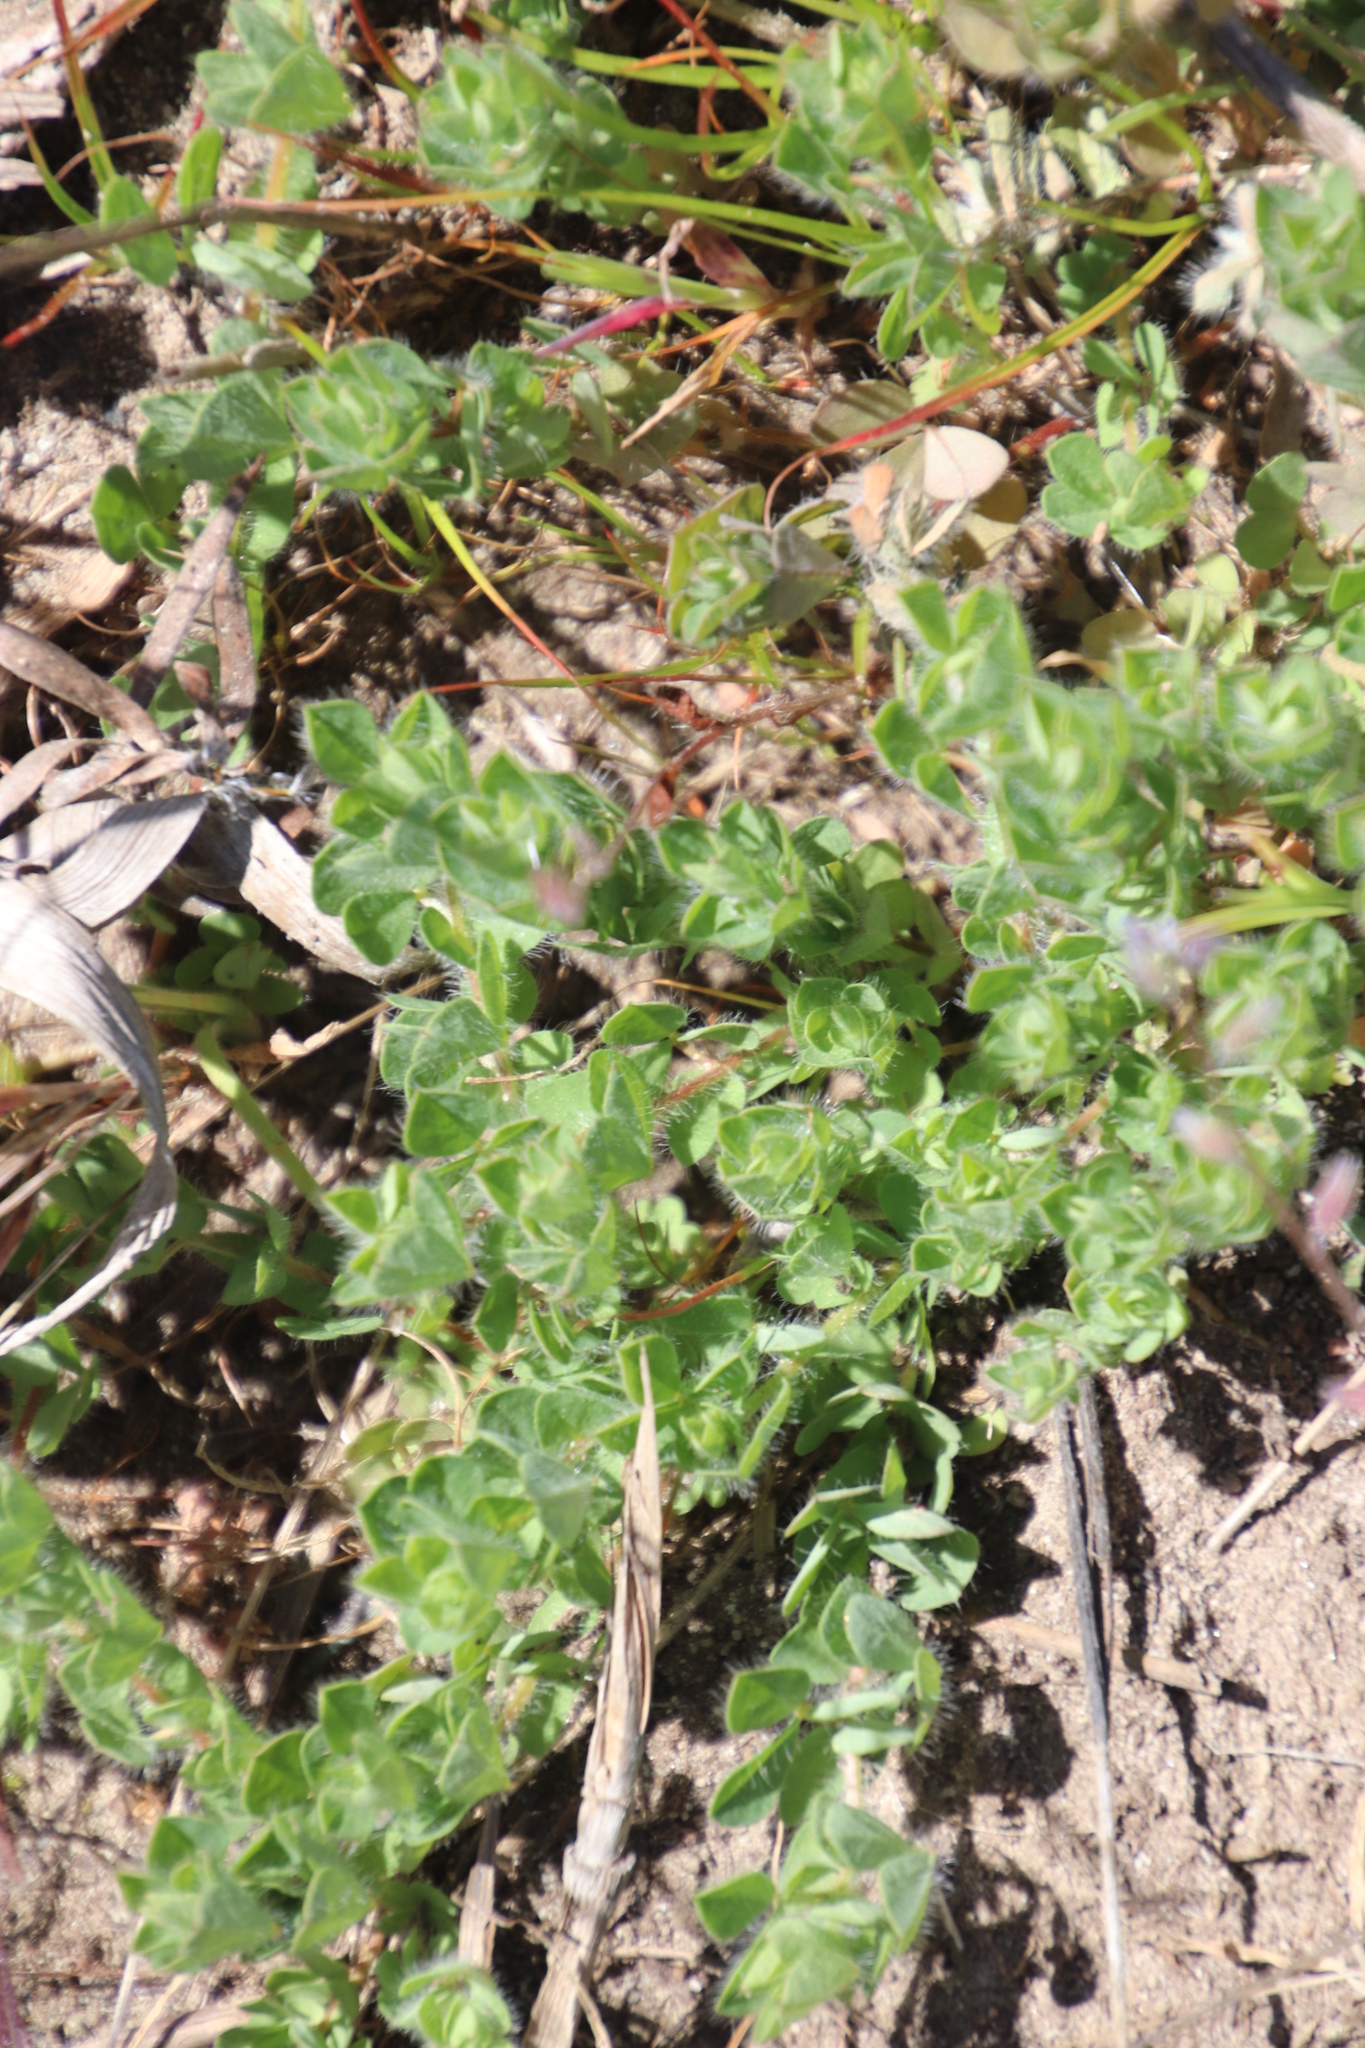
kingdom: Plantae
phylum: Tracheophyta
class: Magnoliopsida
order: Fabales
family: Fabaceae
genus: Lotus
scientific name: Lotus subbiflorus
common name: Hairy bird's-foot trefoil
